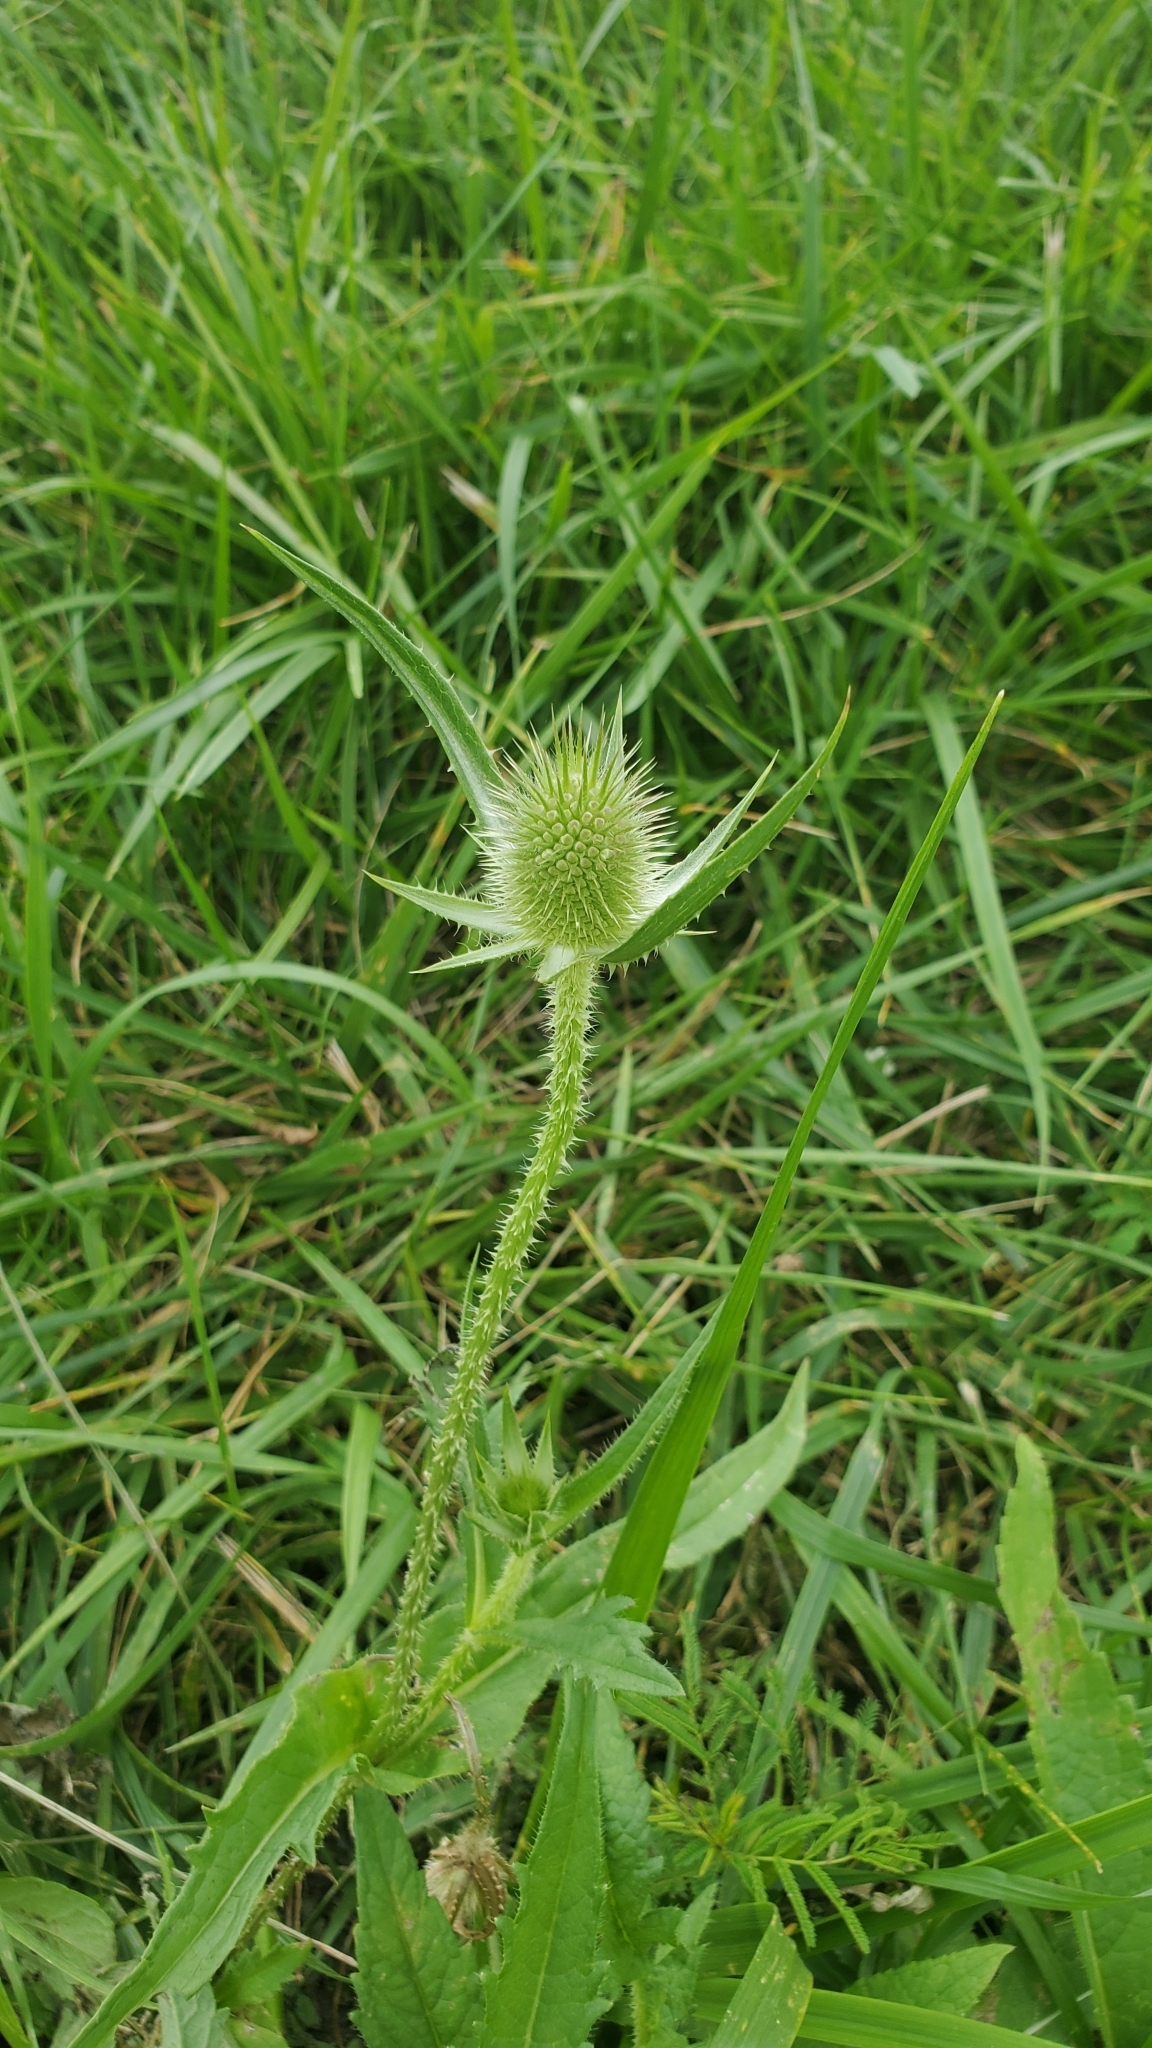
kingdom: Plantae
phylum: Tracheophyta
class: Magnoliopsida
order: Dipsacales
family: Caprifoliaceae
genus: Dipsacus
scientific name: Dipsacus laciniatus
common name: Cut-leaved teasel
